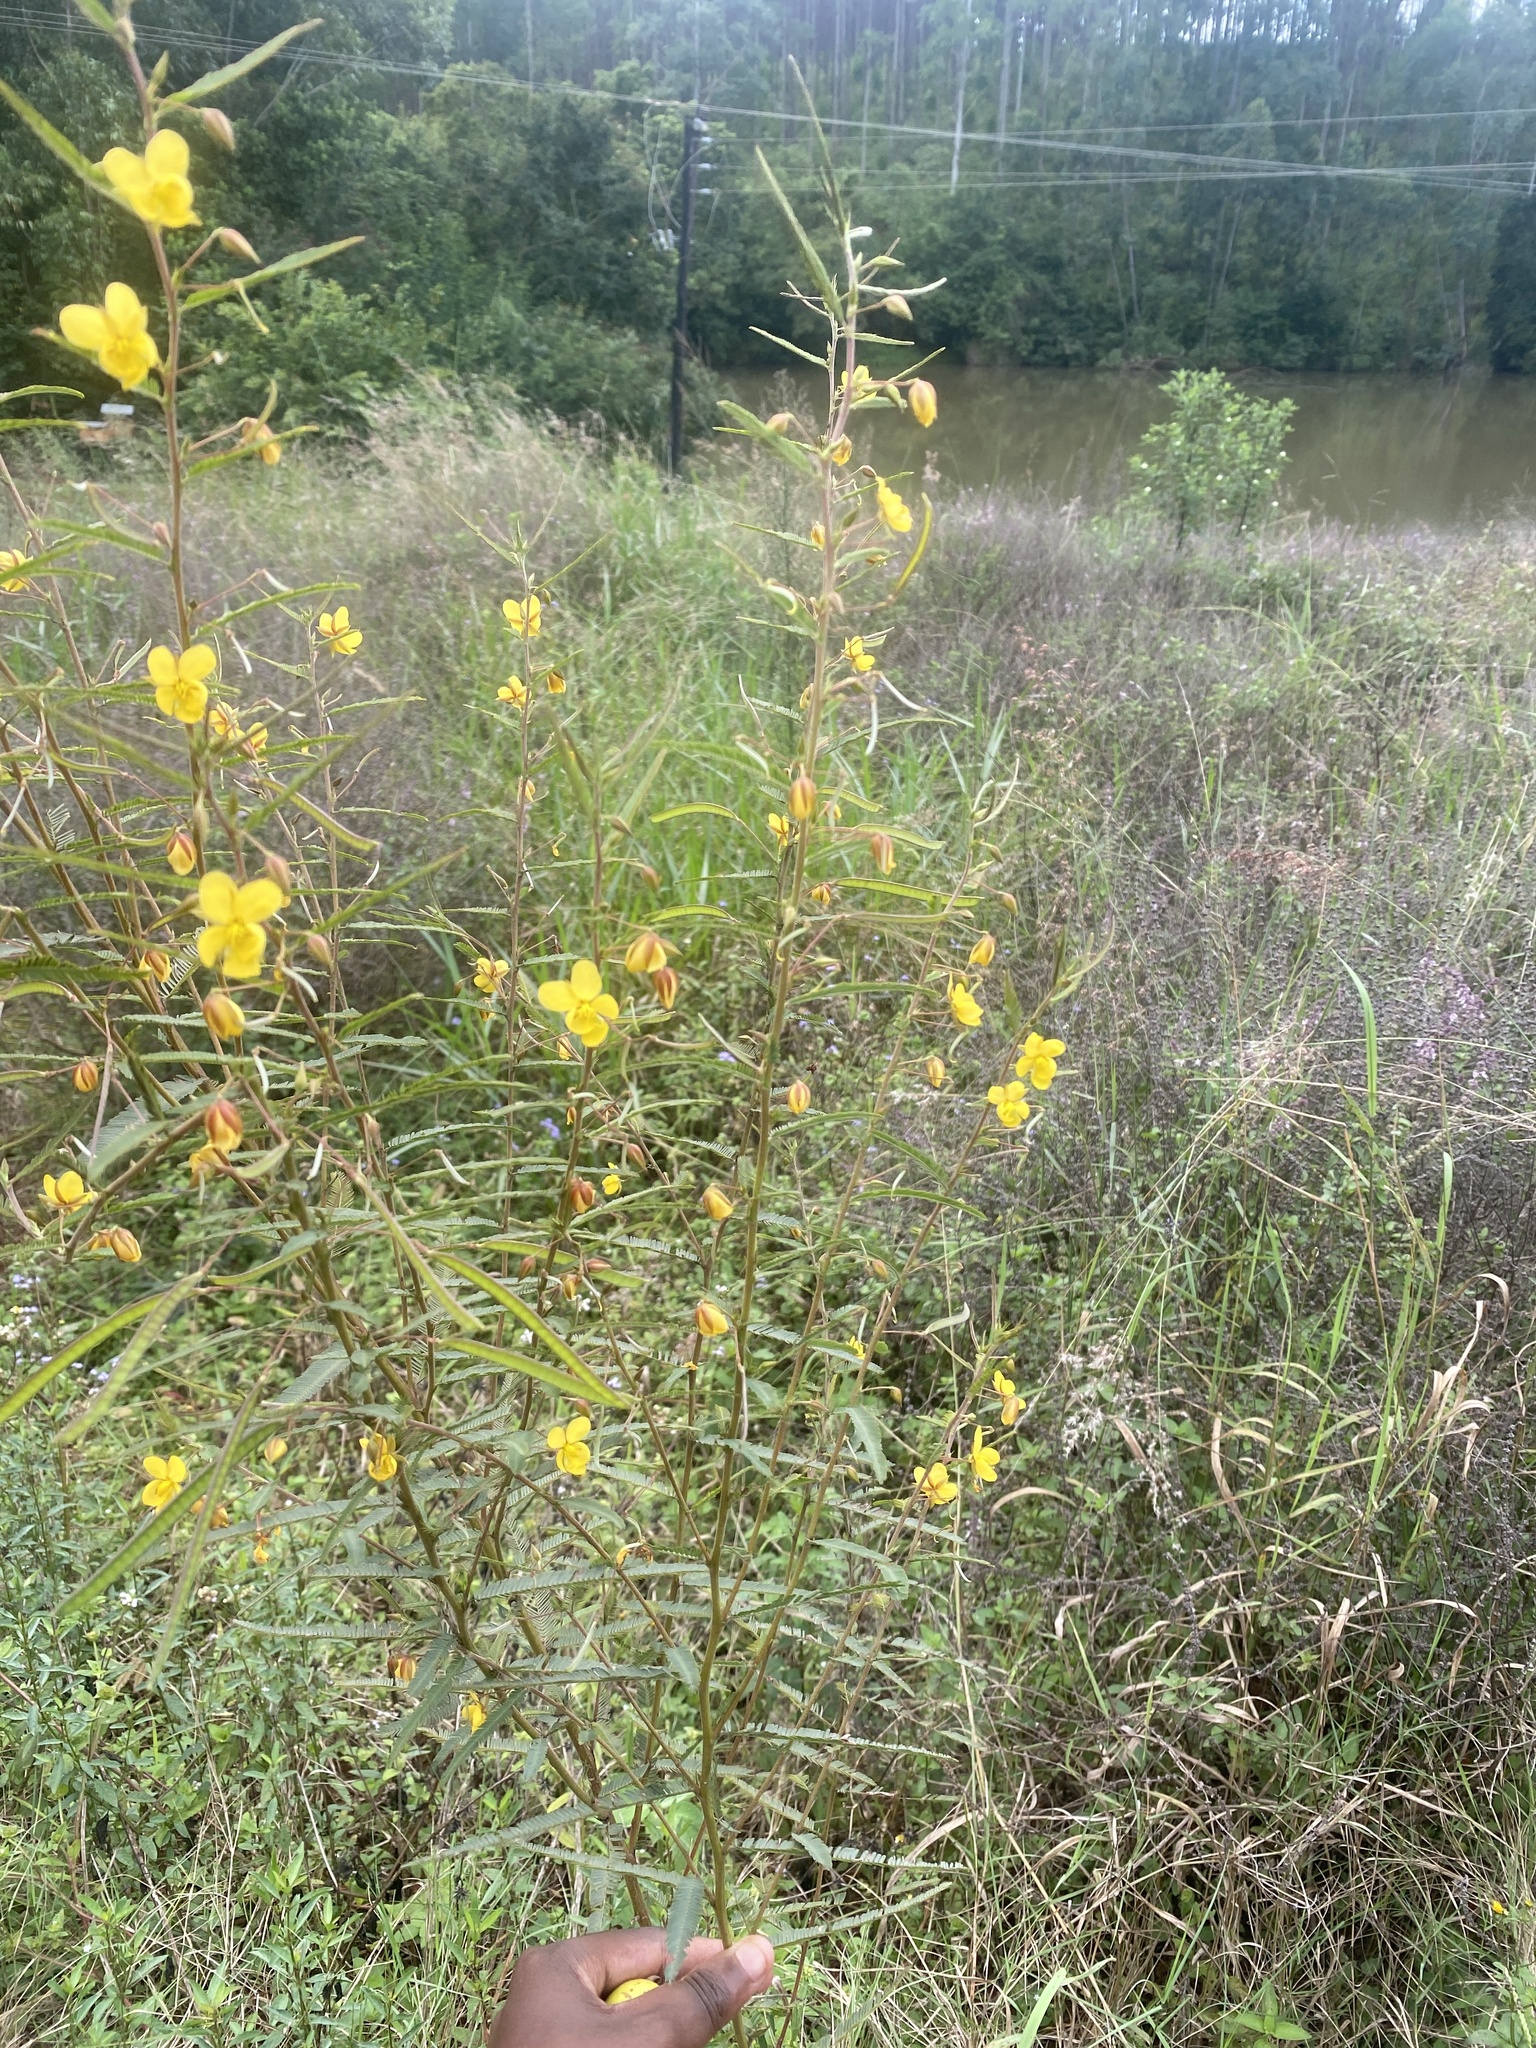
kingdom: Plantae
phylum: Tracheophyta
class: Magnoliopsida
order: Fabales
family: Fabaceae
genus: Chamaecrista
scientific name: Chamaecrista mimosoides
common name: Fish-bone cassia
